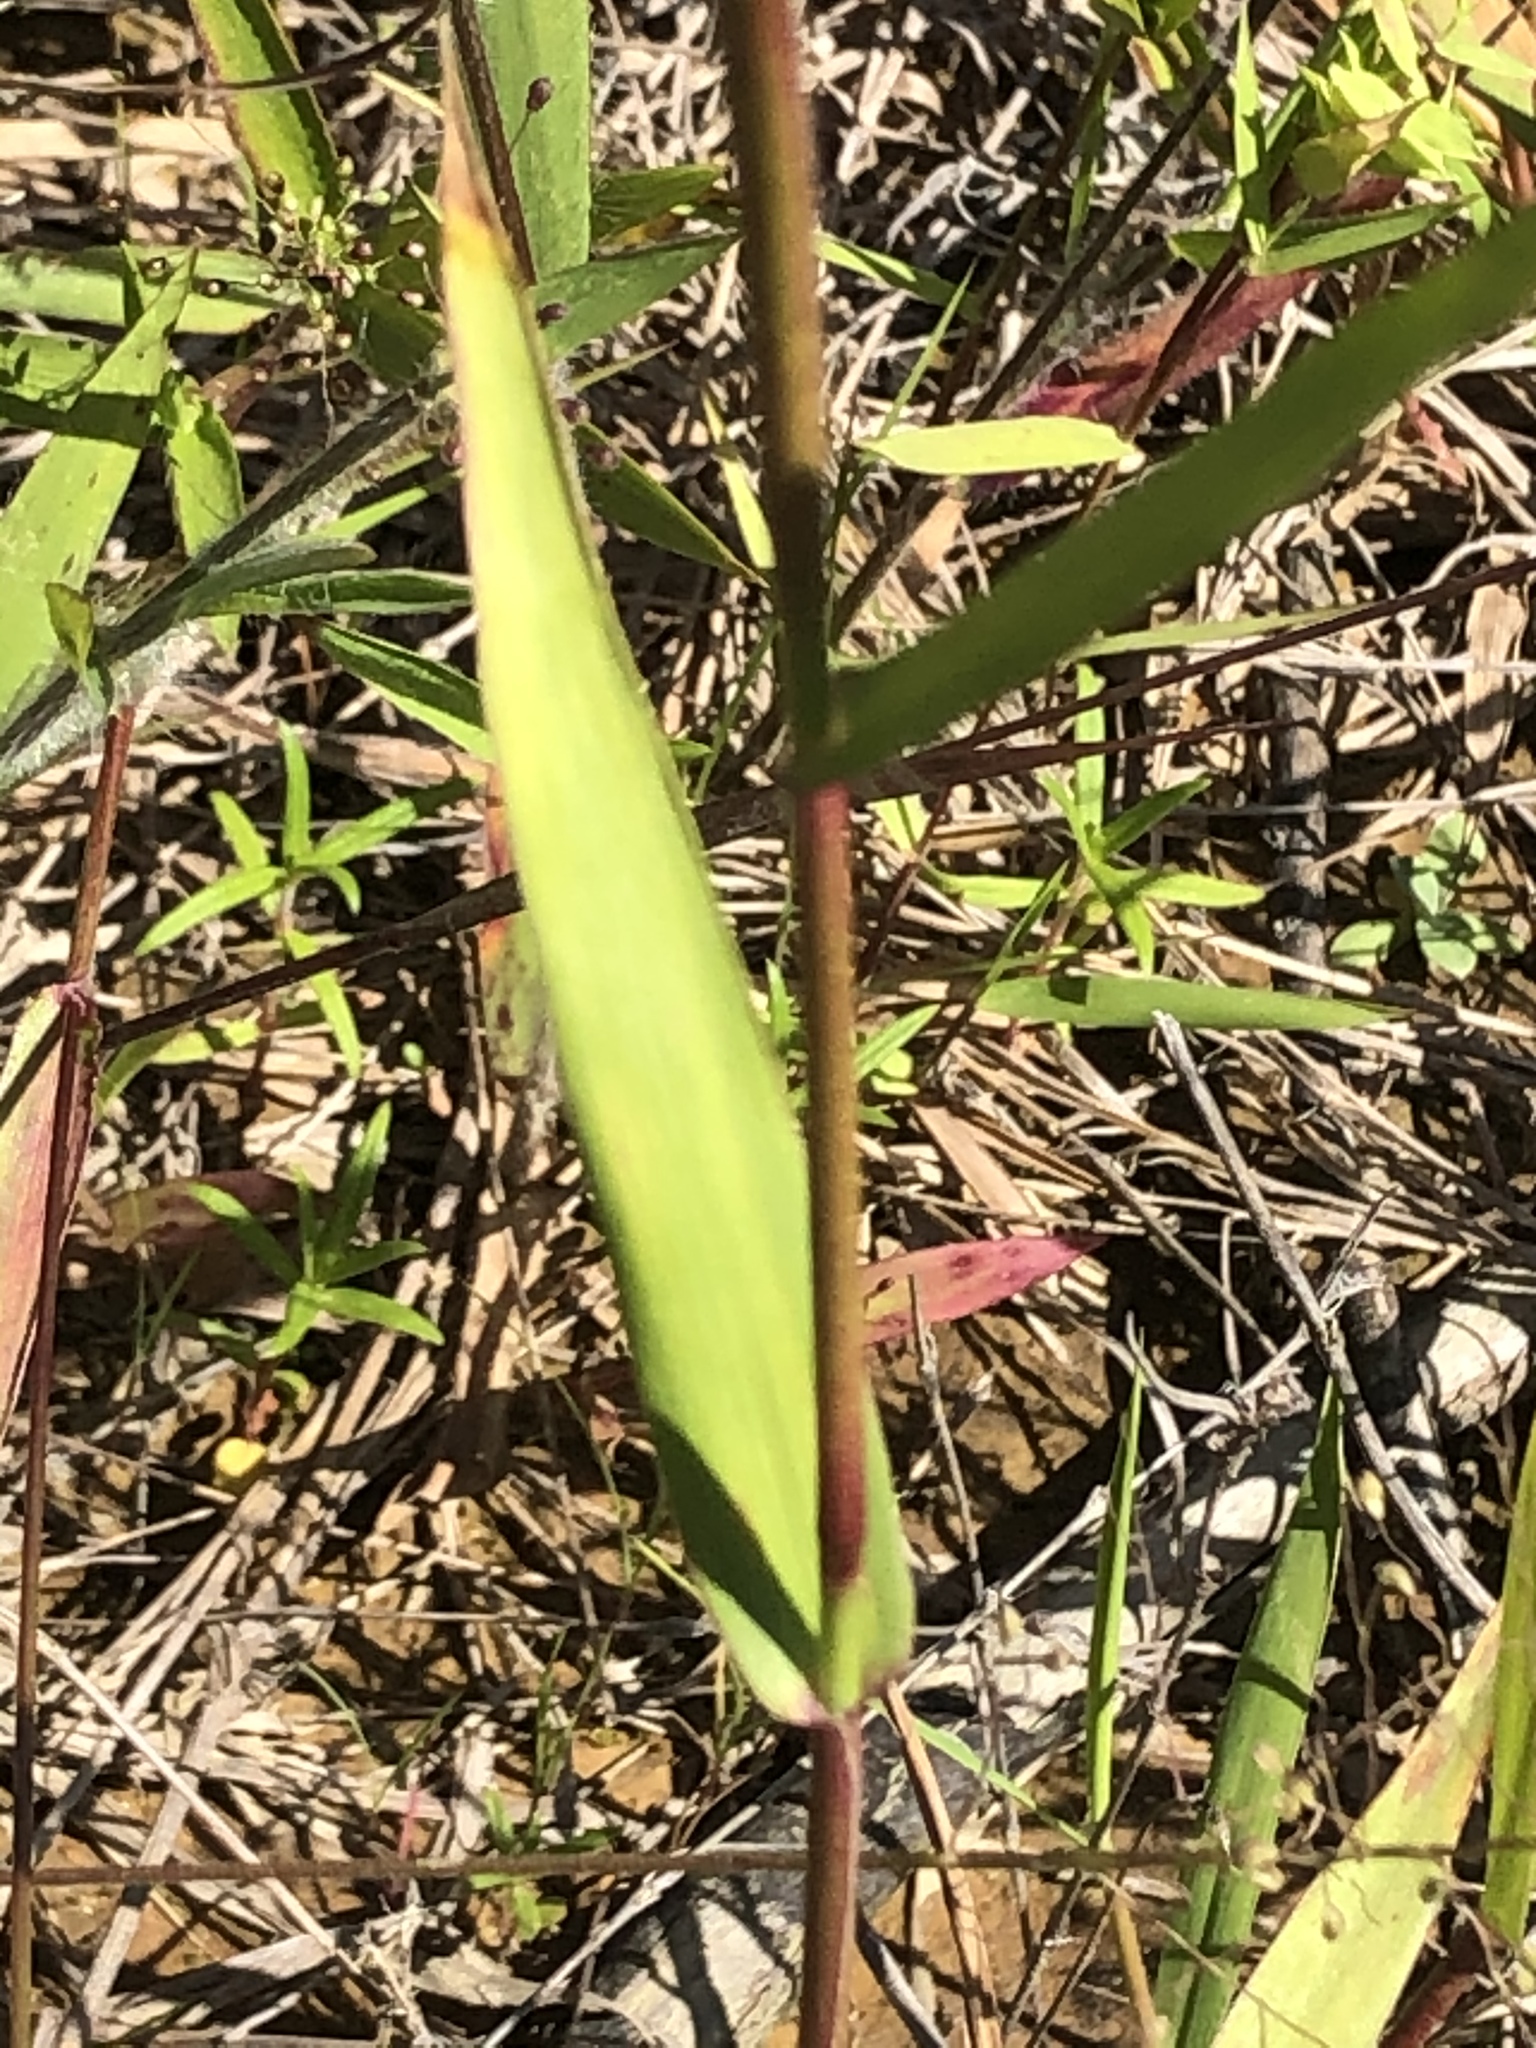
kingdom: Plantae
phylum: Tracheophyta
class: Liliopsida
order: Poales
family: Poaceae
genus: Dichanthelium
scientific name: Dichanthelium sphaerocarpon
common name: Round-fruited panicgrass
